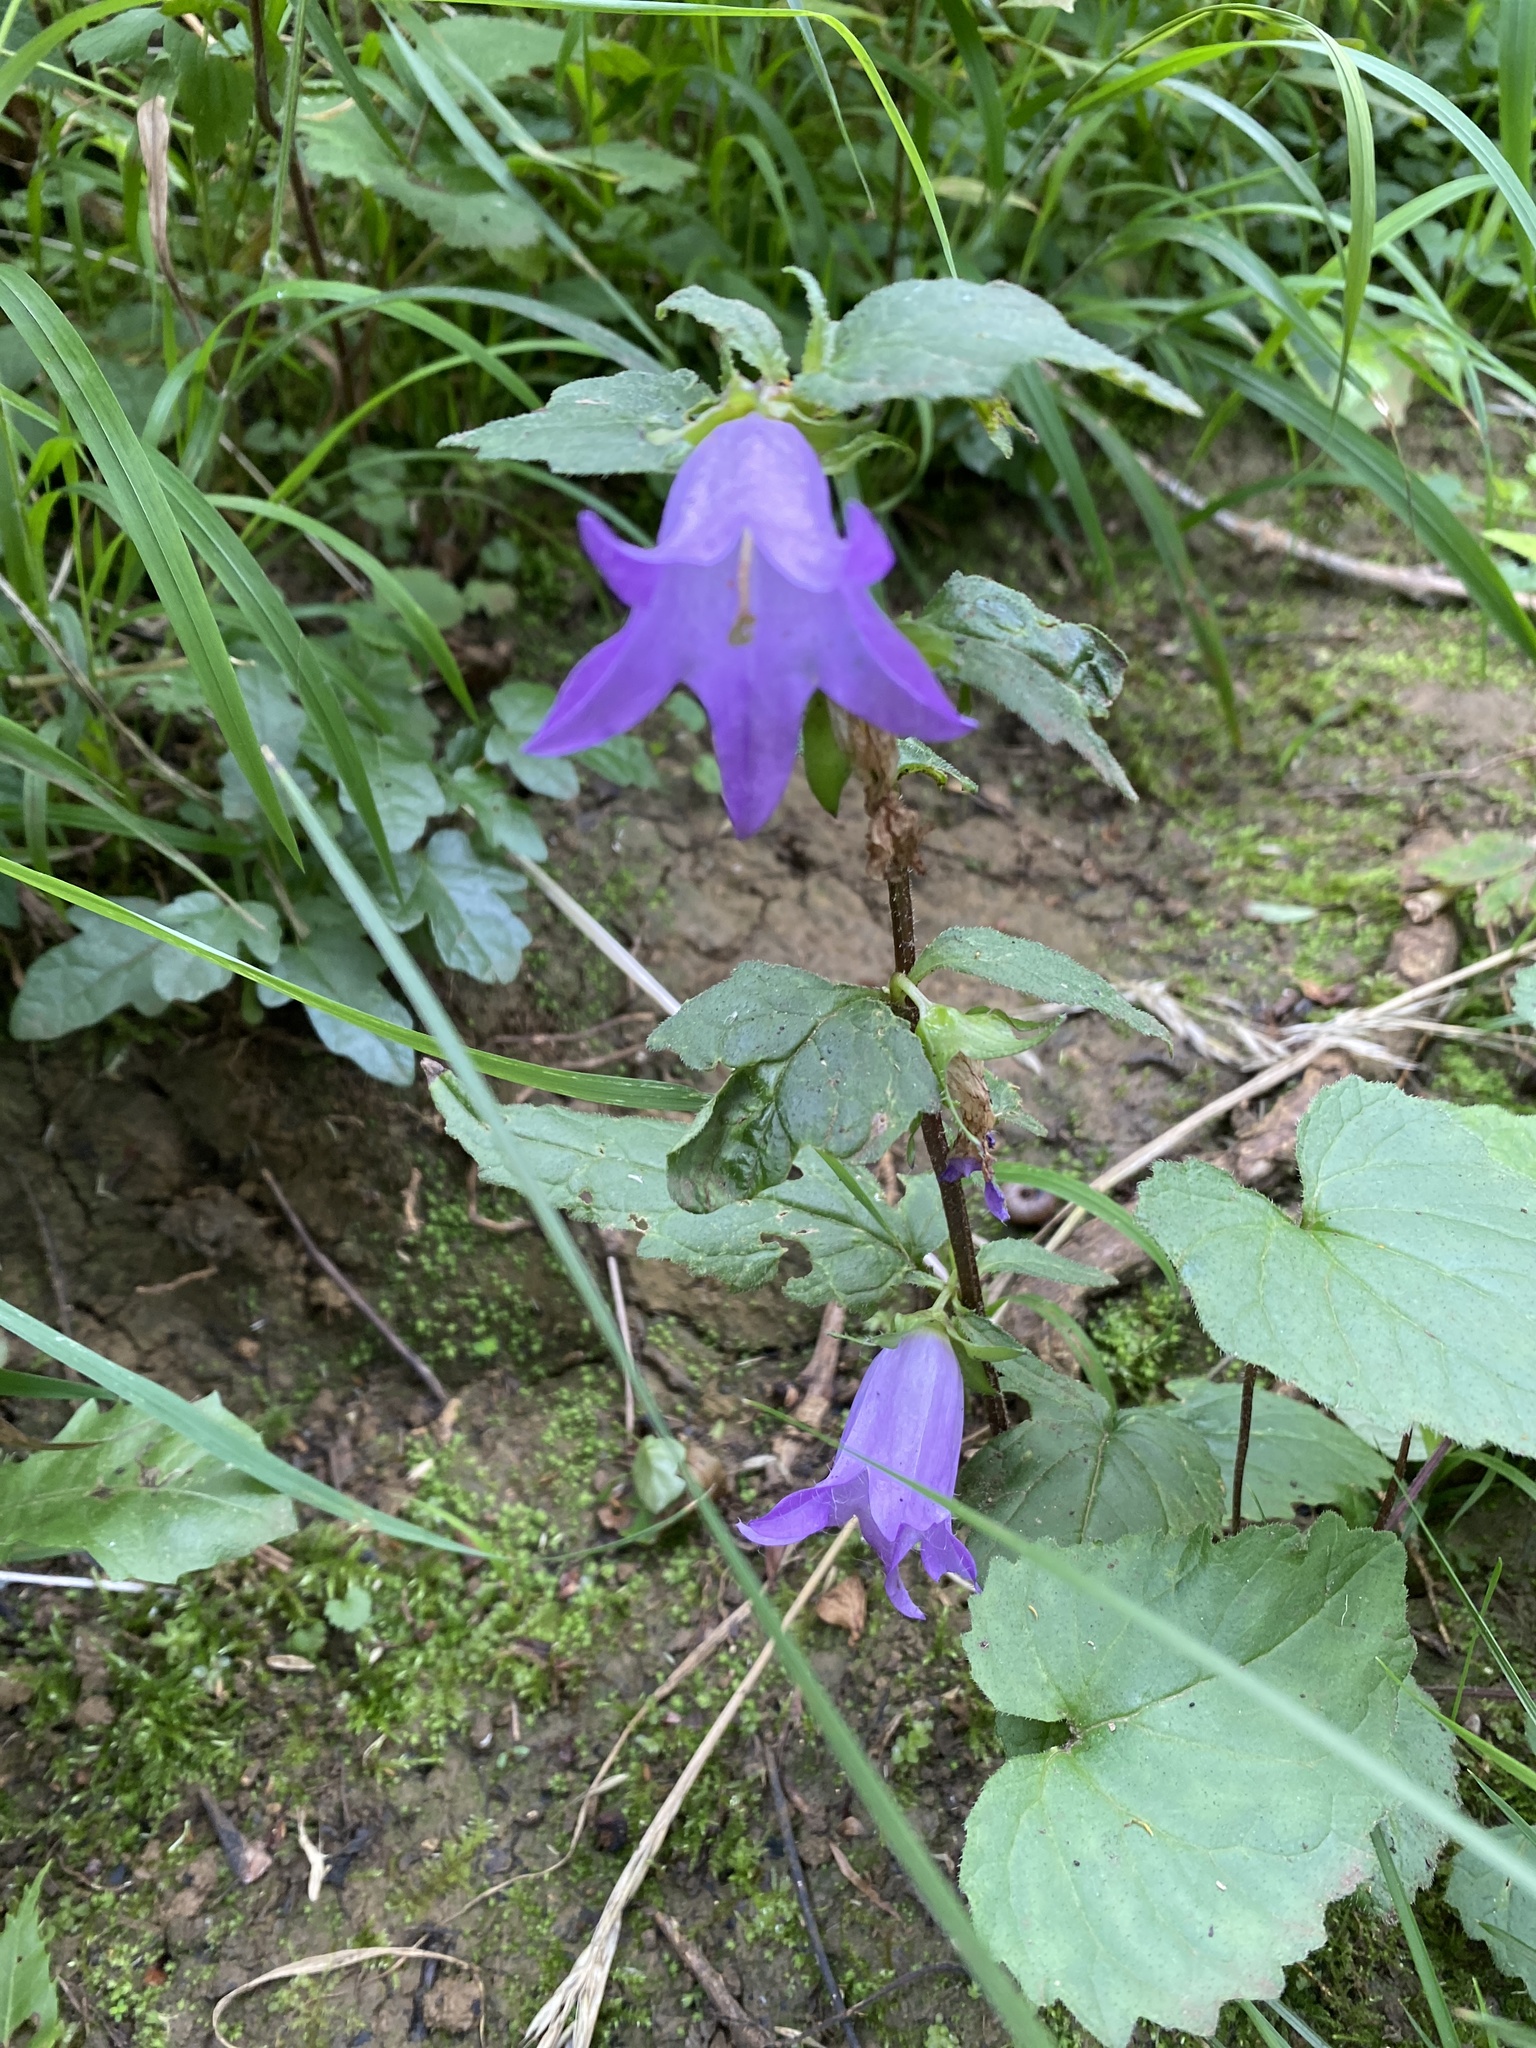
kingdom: Plantae
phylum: Tracheophyta
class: Magnoliopsida
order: Asterales
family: Campanulaceae
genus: Campanula
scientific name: Campanula trachelium
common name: Nettle-leaved bellflower
